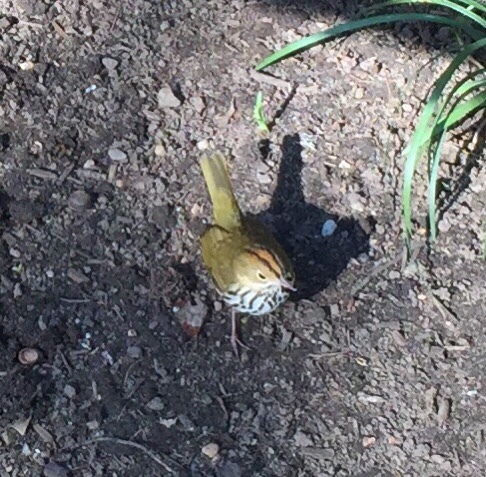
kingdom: Animalia
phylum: Chordata
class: Aves
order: Passeriformes
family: Parulidae
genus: Seiurus
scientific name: Seiurus aurocapilla
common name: Ovenbird
